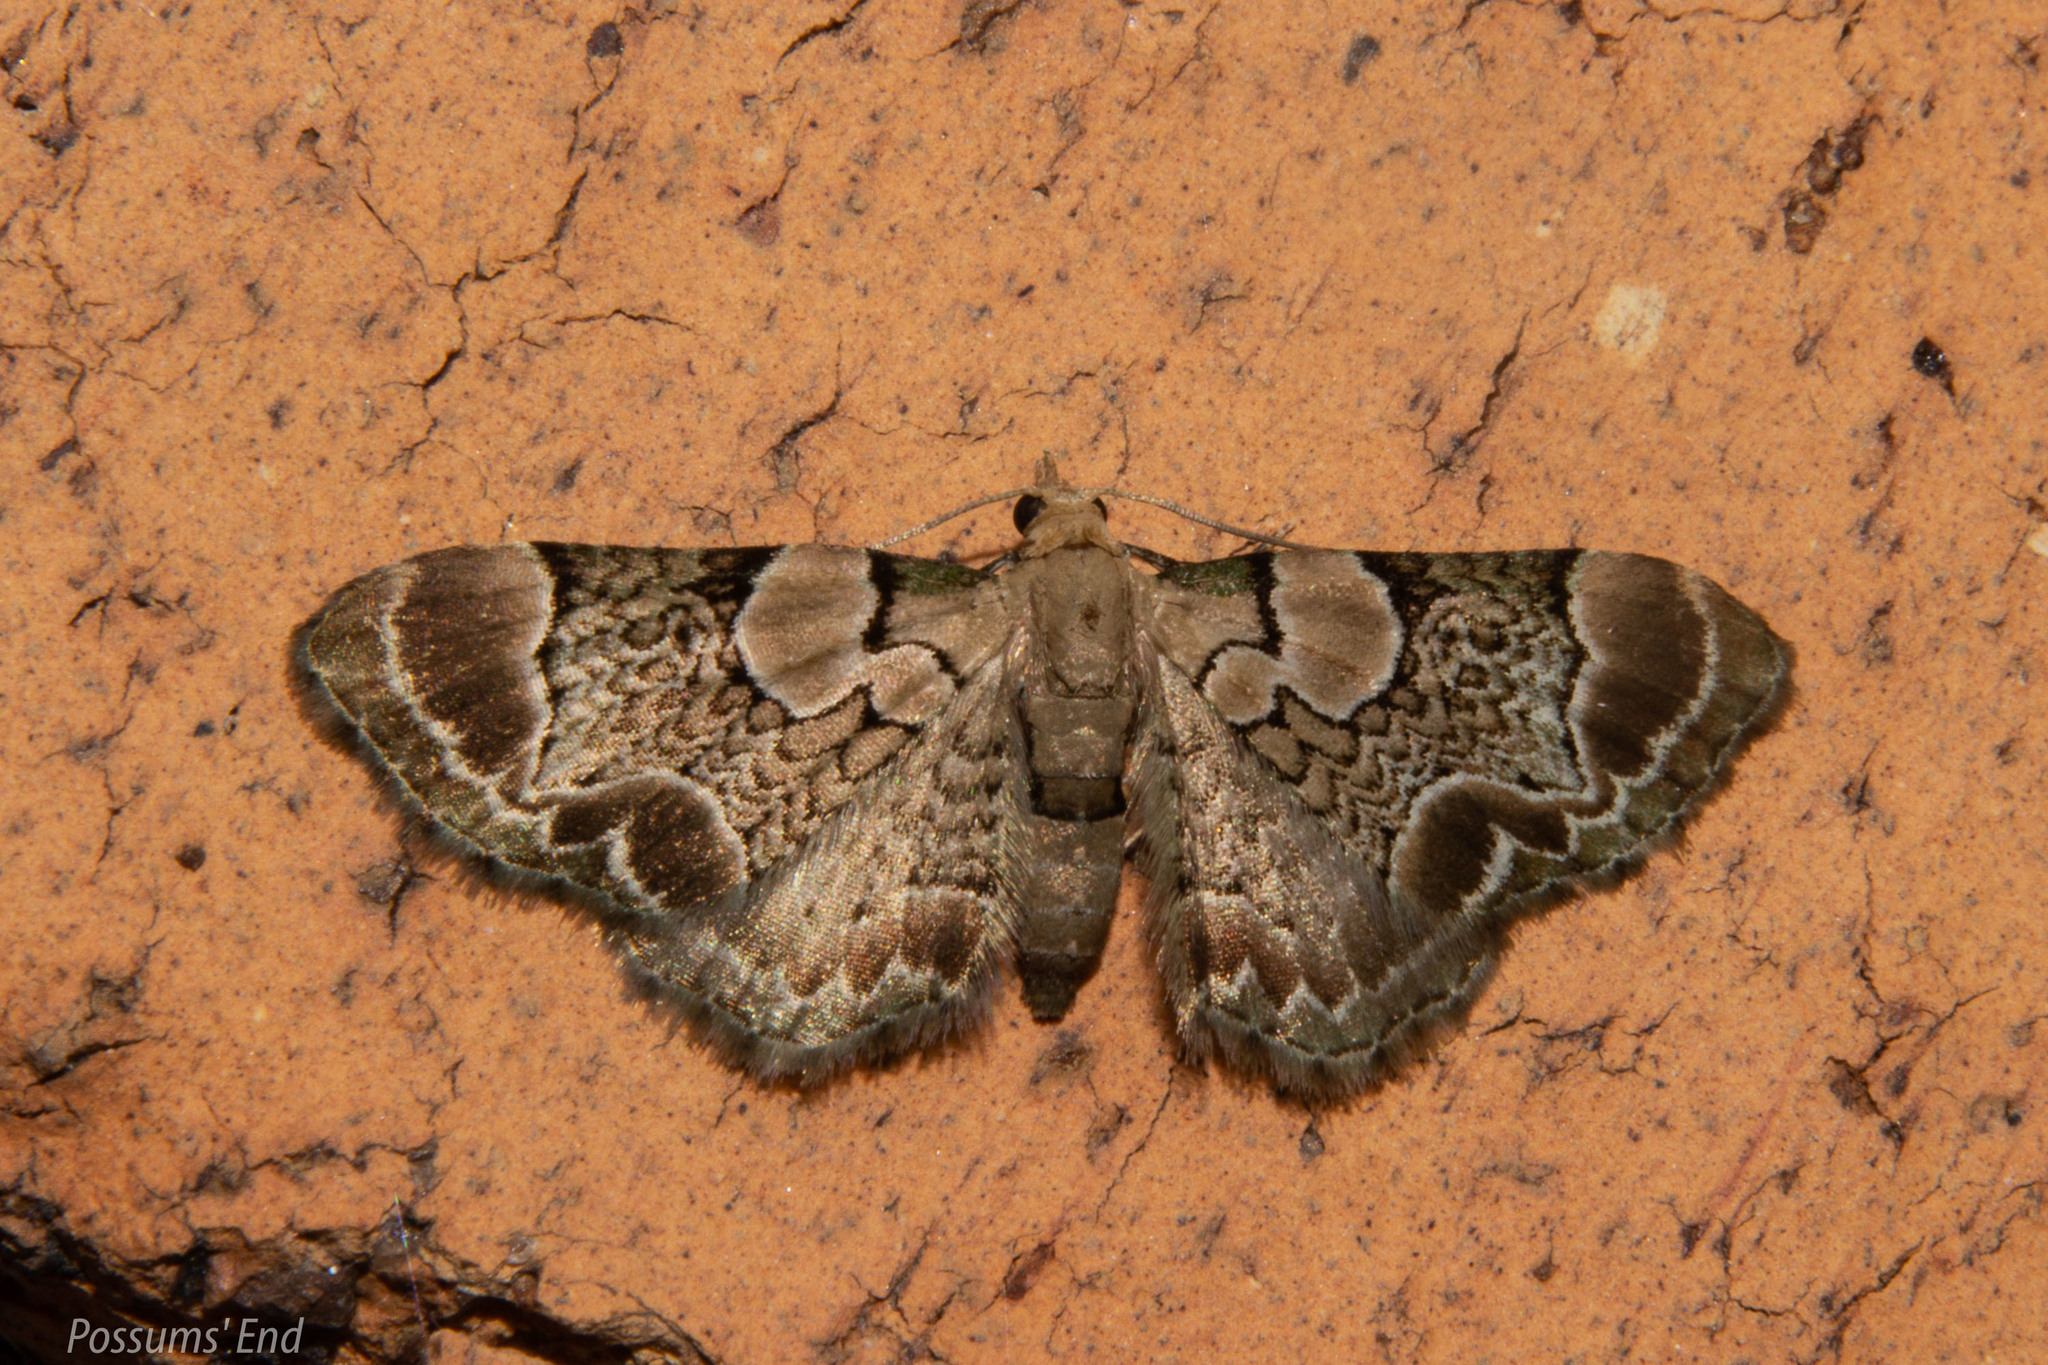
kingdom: Animalia
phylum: Arthropoda
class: Insecta
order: Lepidoptera
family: Geometridae
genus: Chloroclystis
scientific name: Chloroclystis
